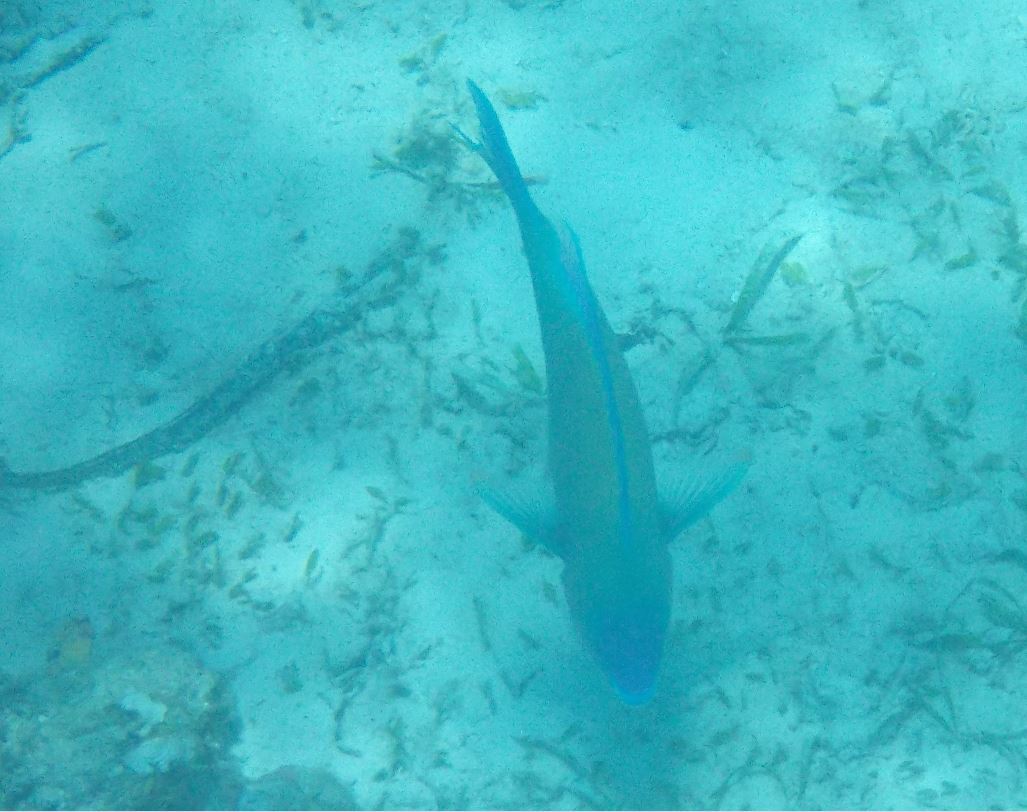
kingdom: Animalia
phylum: Chordata
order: Perciformes
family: Scaridae
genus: Scarus
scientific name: Scarus psittacus
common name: Palenose parrotfish
